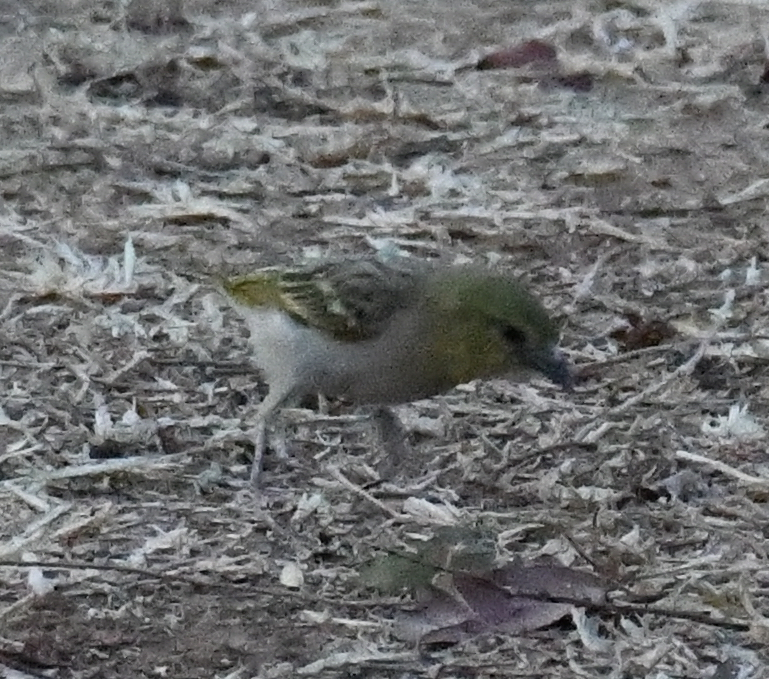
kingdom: Animalia
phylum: Chordata
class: Aves
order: Passeriformes
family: Ploceidae
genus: Ploceus
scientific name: Ploceus luteolus
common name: Little weaver
